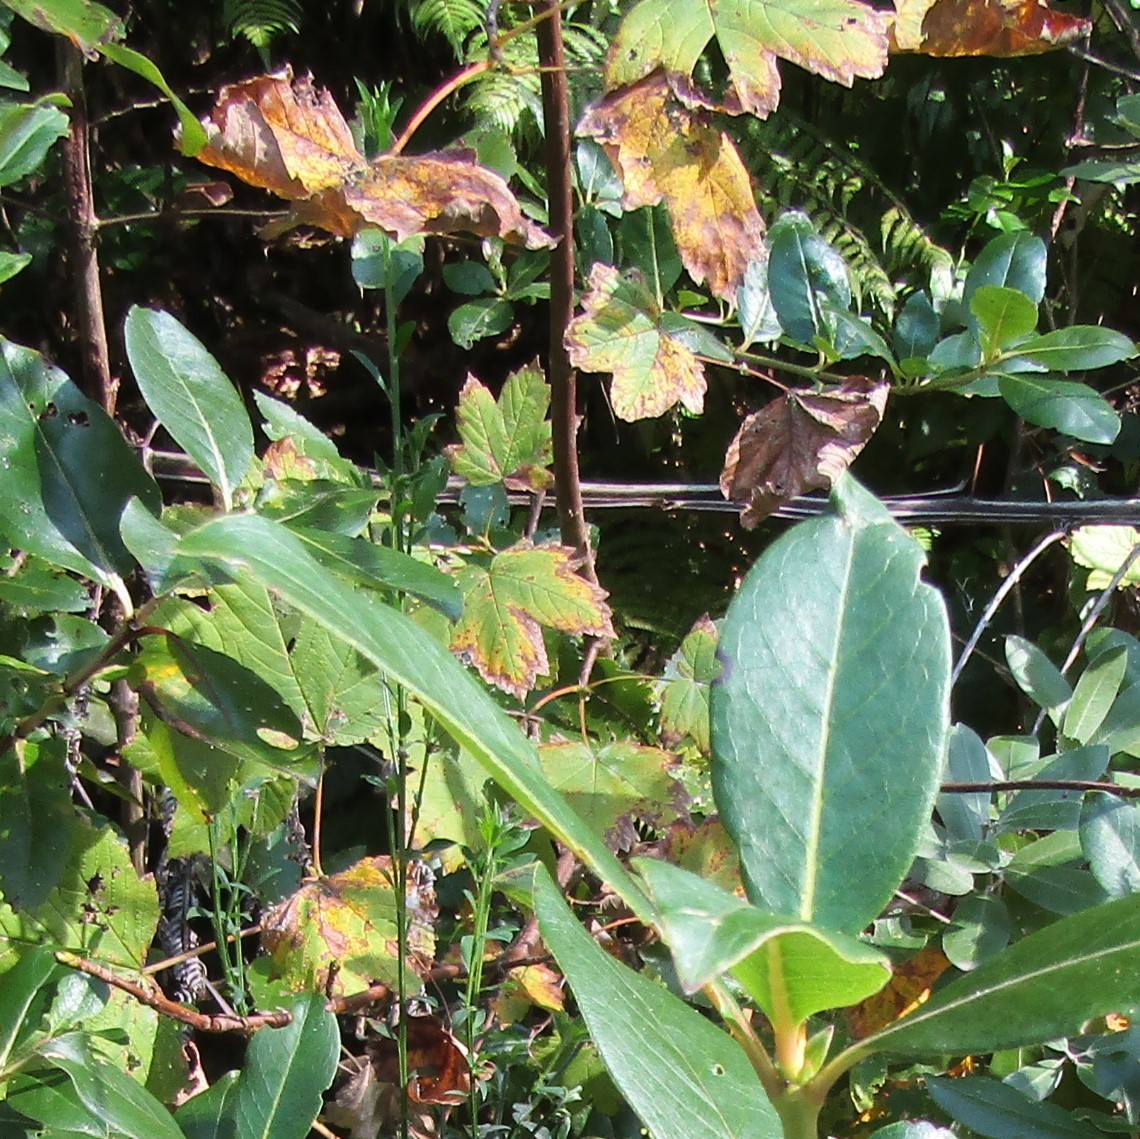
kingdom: Plantae
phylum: Tracheophyta
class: Magnoliopsida
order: Sapindales
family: Sapindaceae
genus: Acer
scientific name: Acer pseudoplatanus
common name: Sycamore
